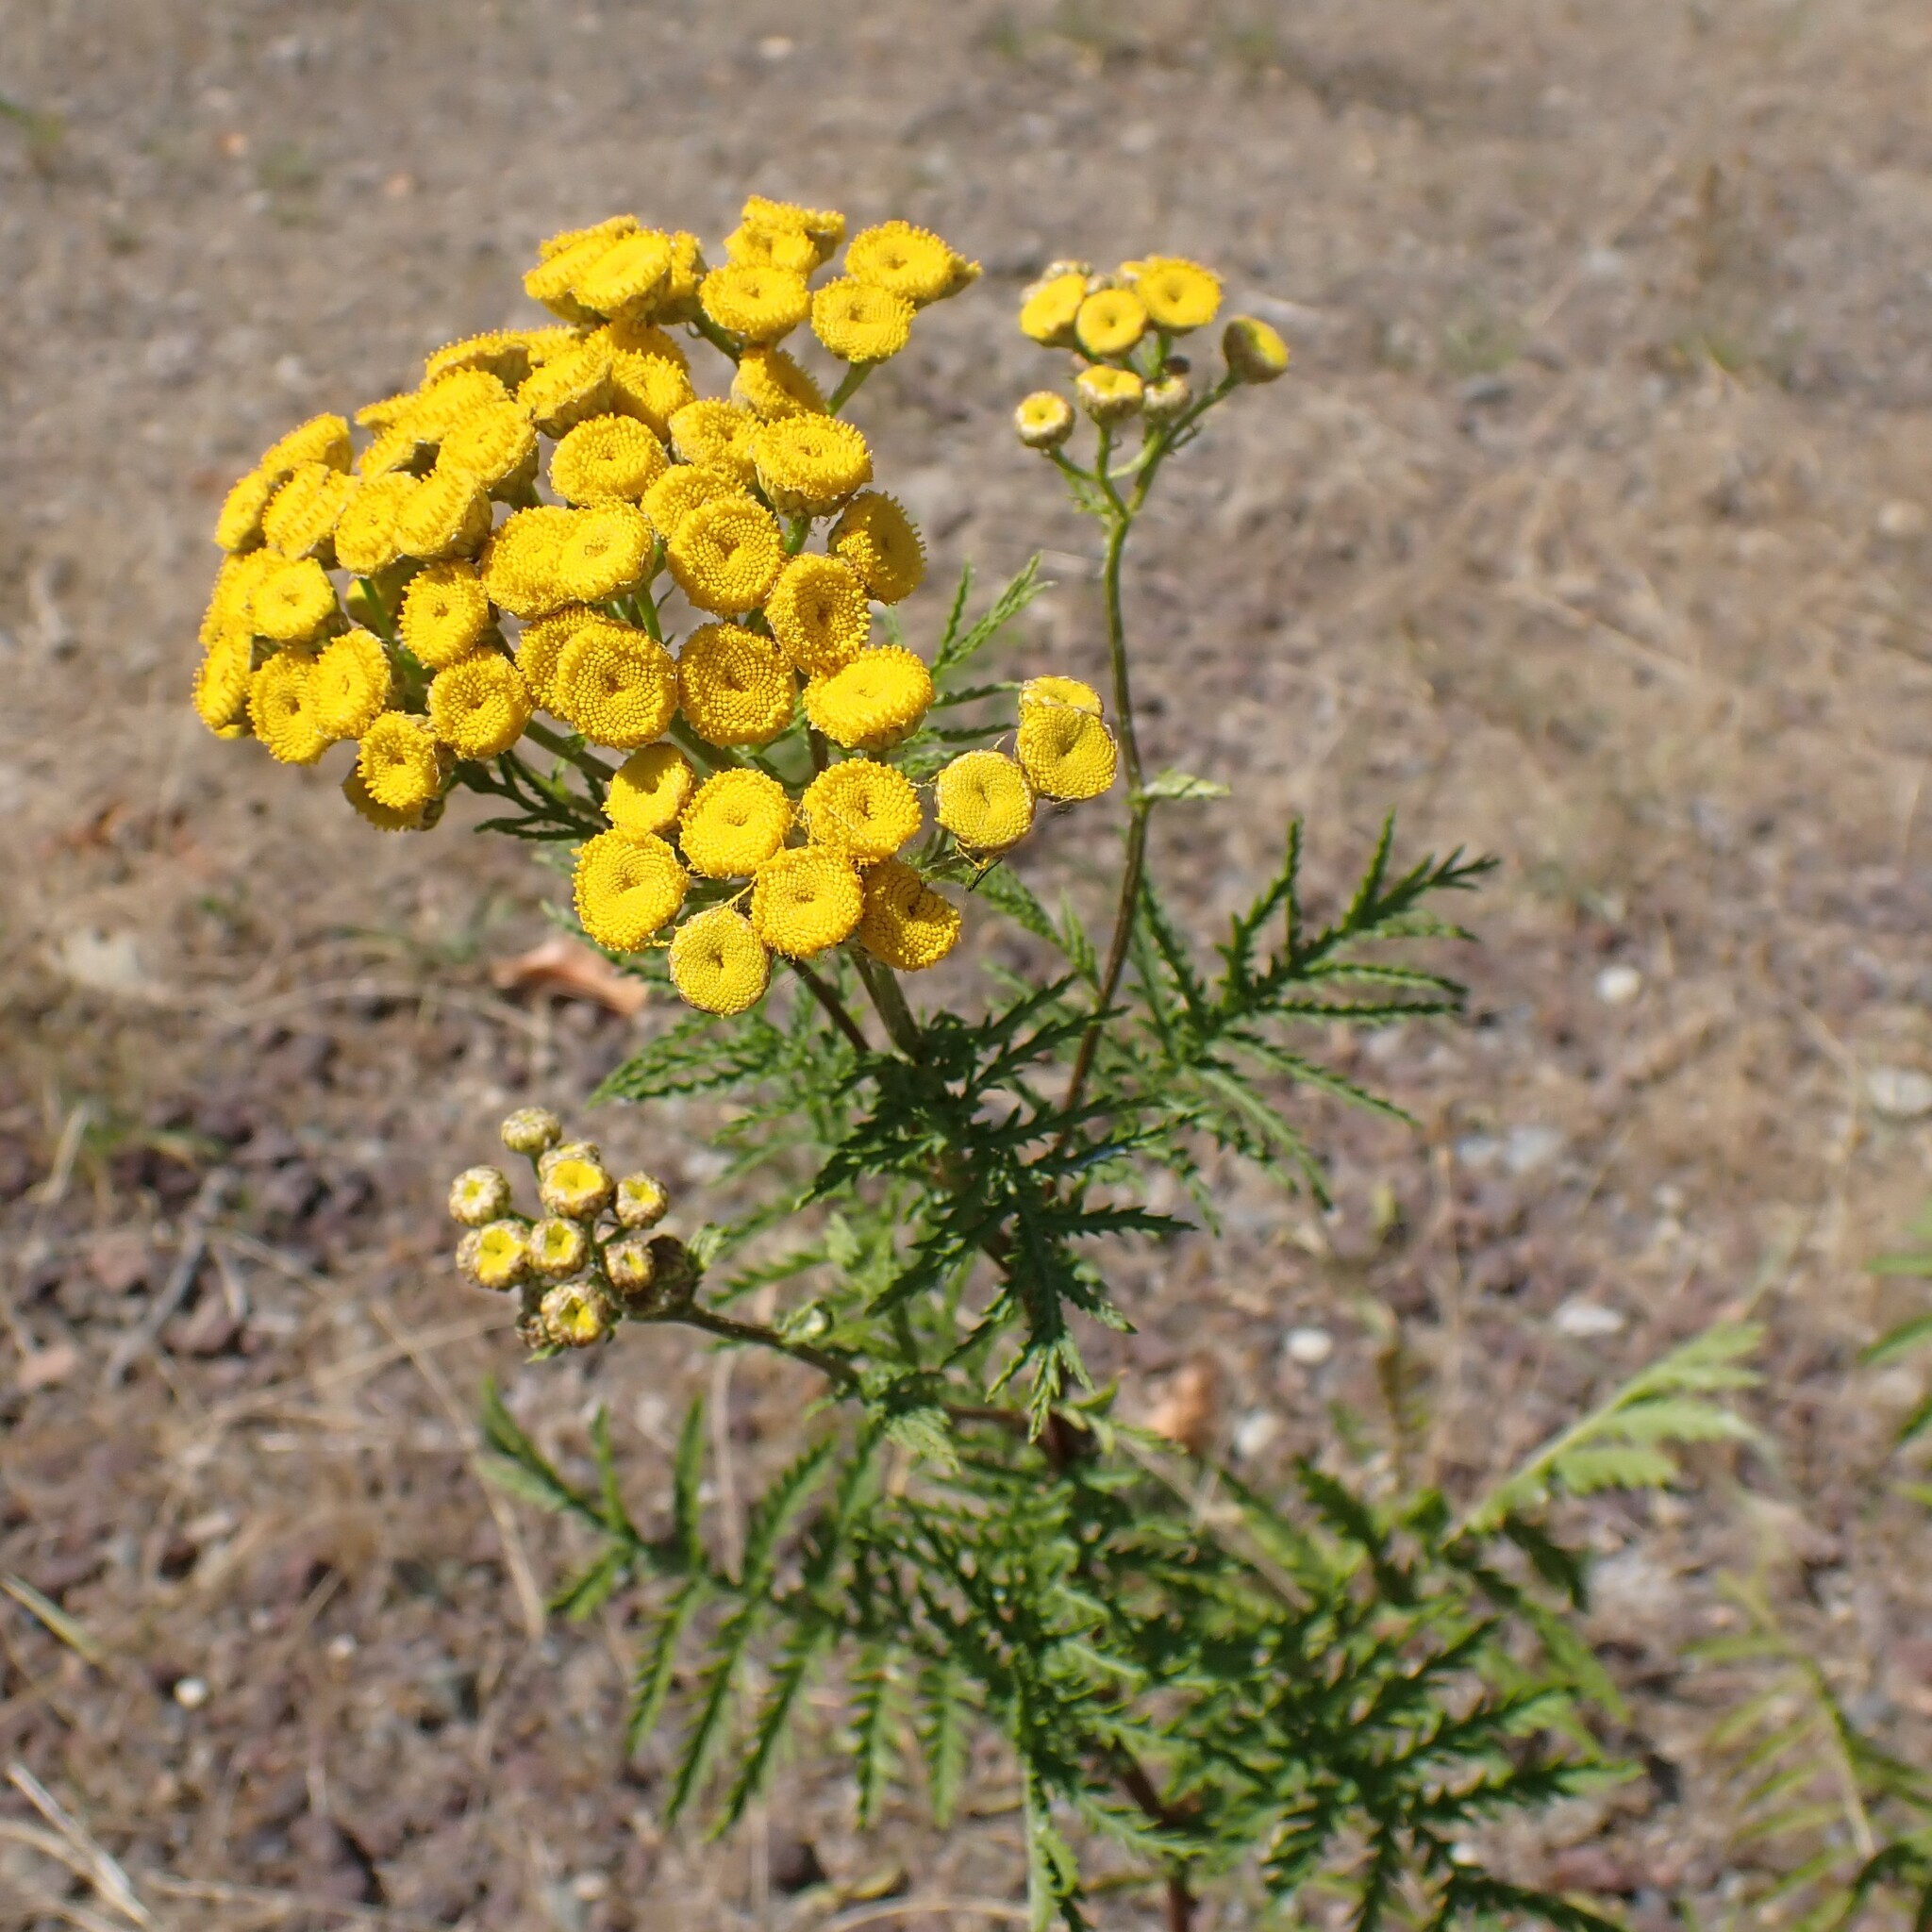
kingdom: Plantae
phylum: Tracheophyta
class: Magnoliopsida
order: Asterales
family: Asteraceae
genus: Tanacetum
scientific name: Tanacetum vulgare
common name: Common tansy
